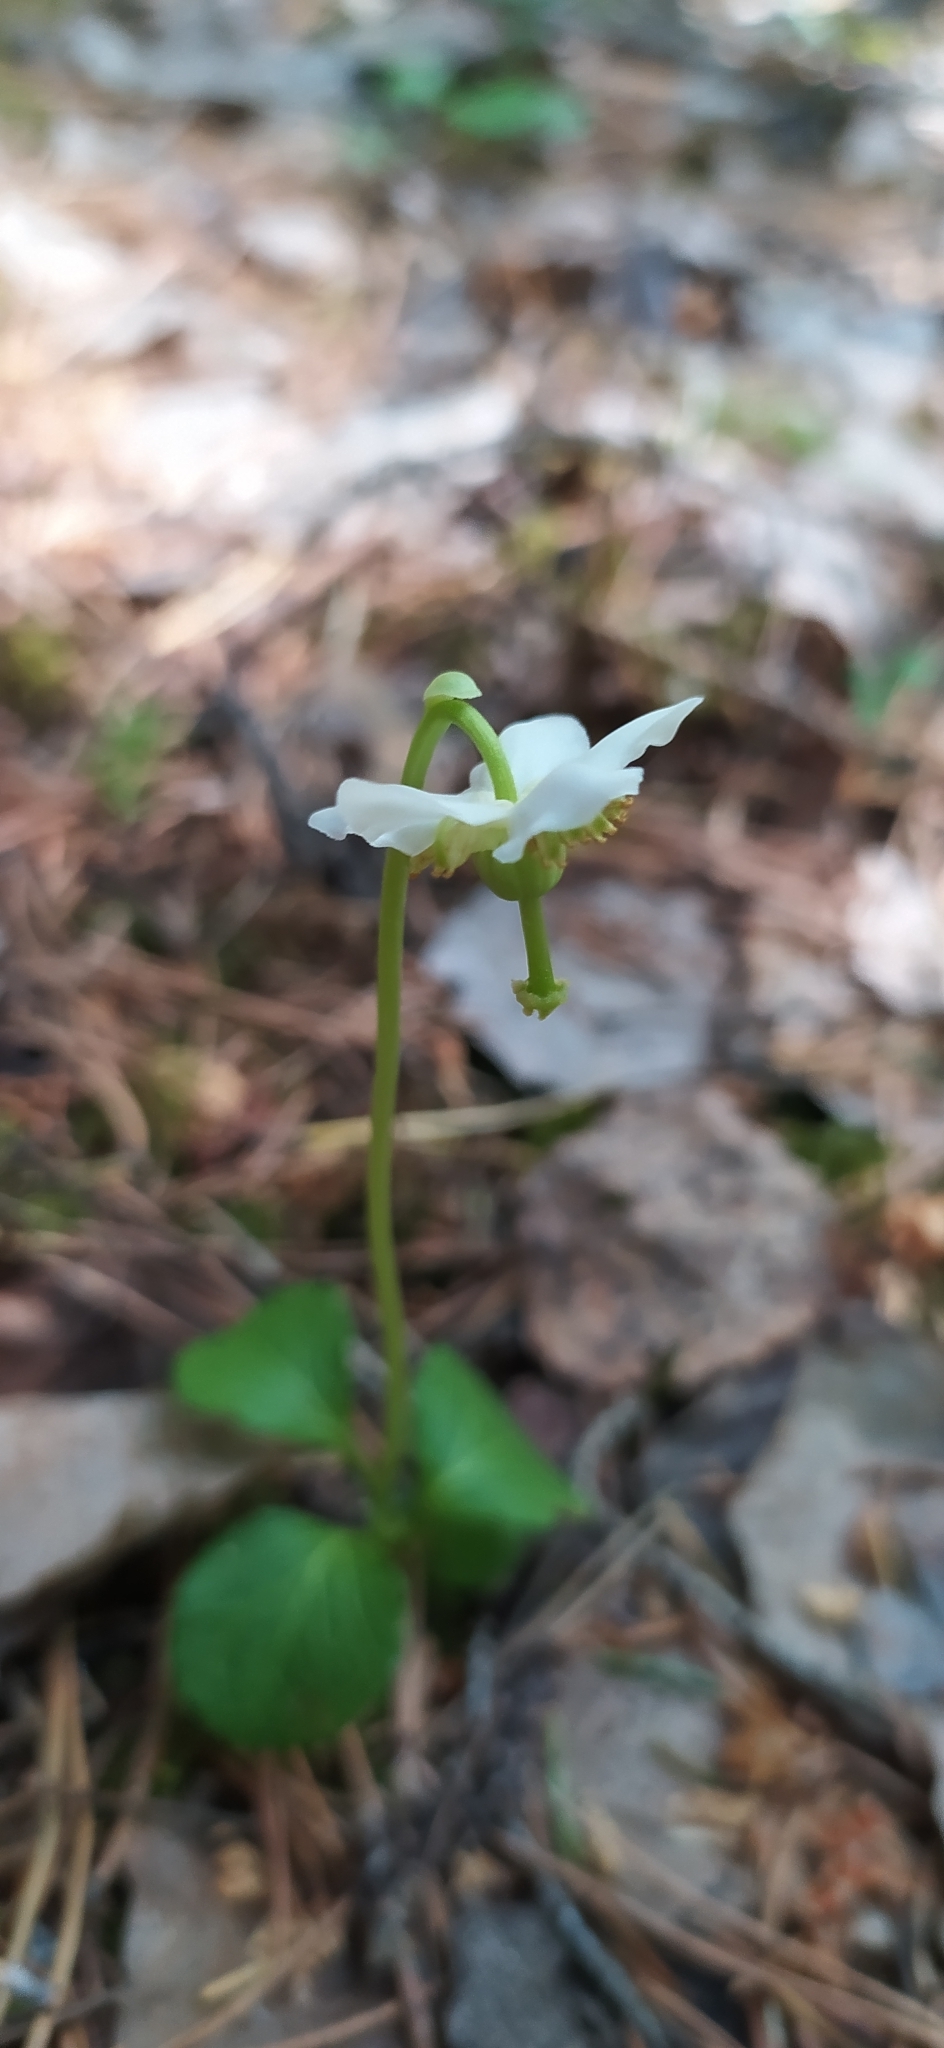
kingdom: Plantae
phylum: Tracheophyta
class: Magnoliopsida
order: Ericales
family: Ericaceae
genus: Moneses
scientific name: Moneses uniflora
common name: One-flowered wintergreen
